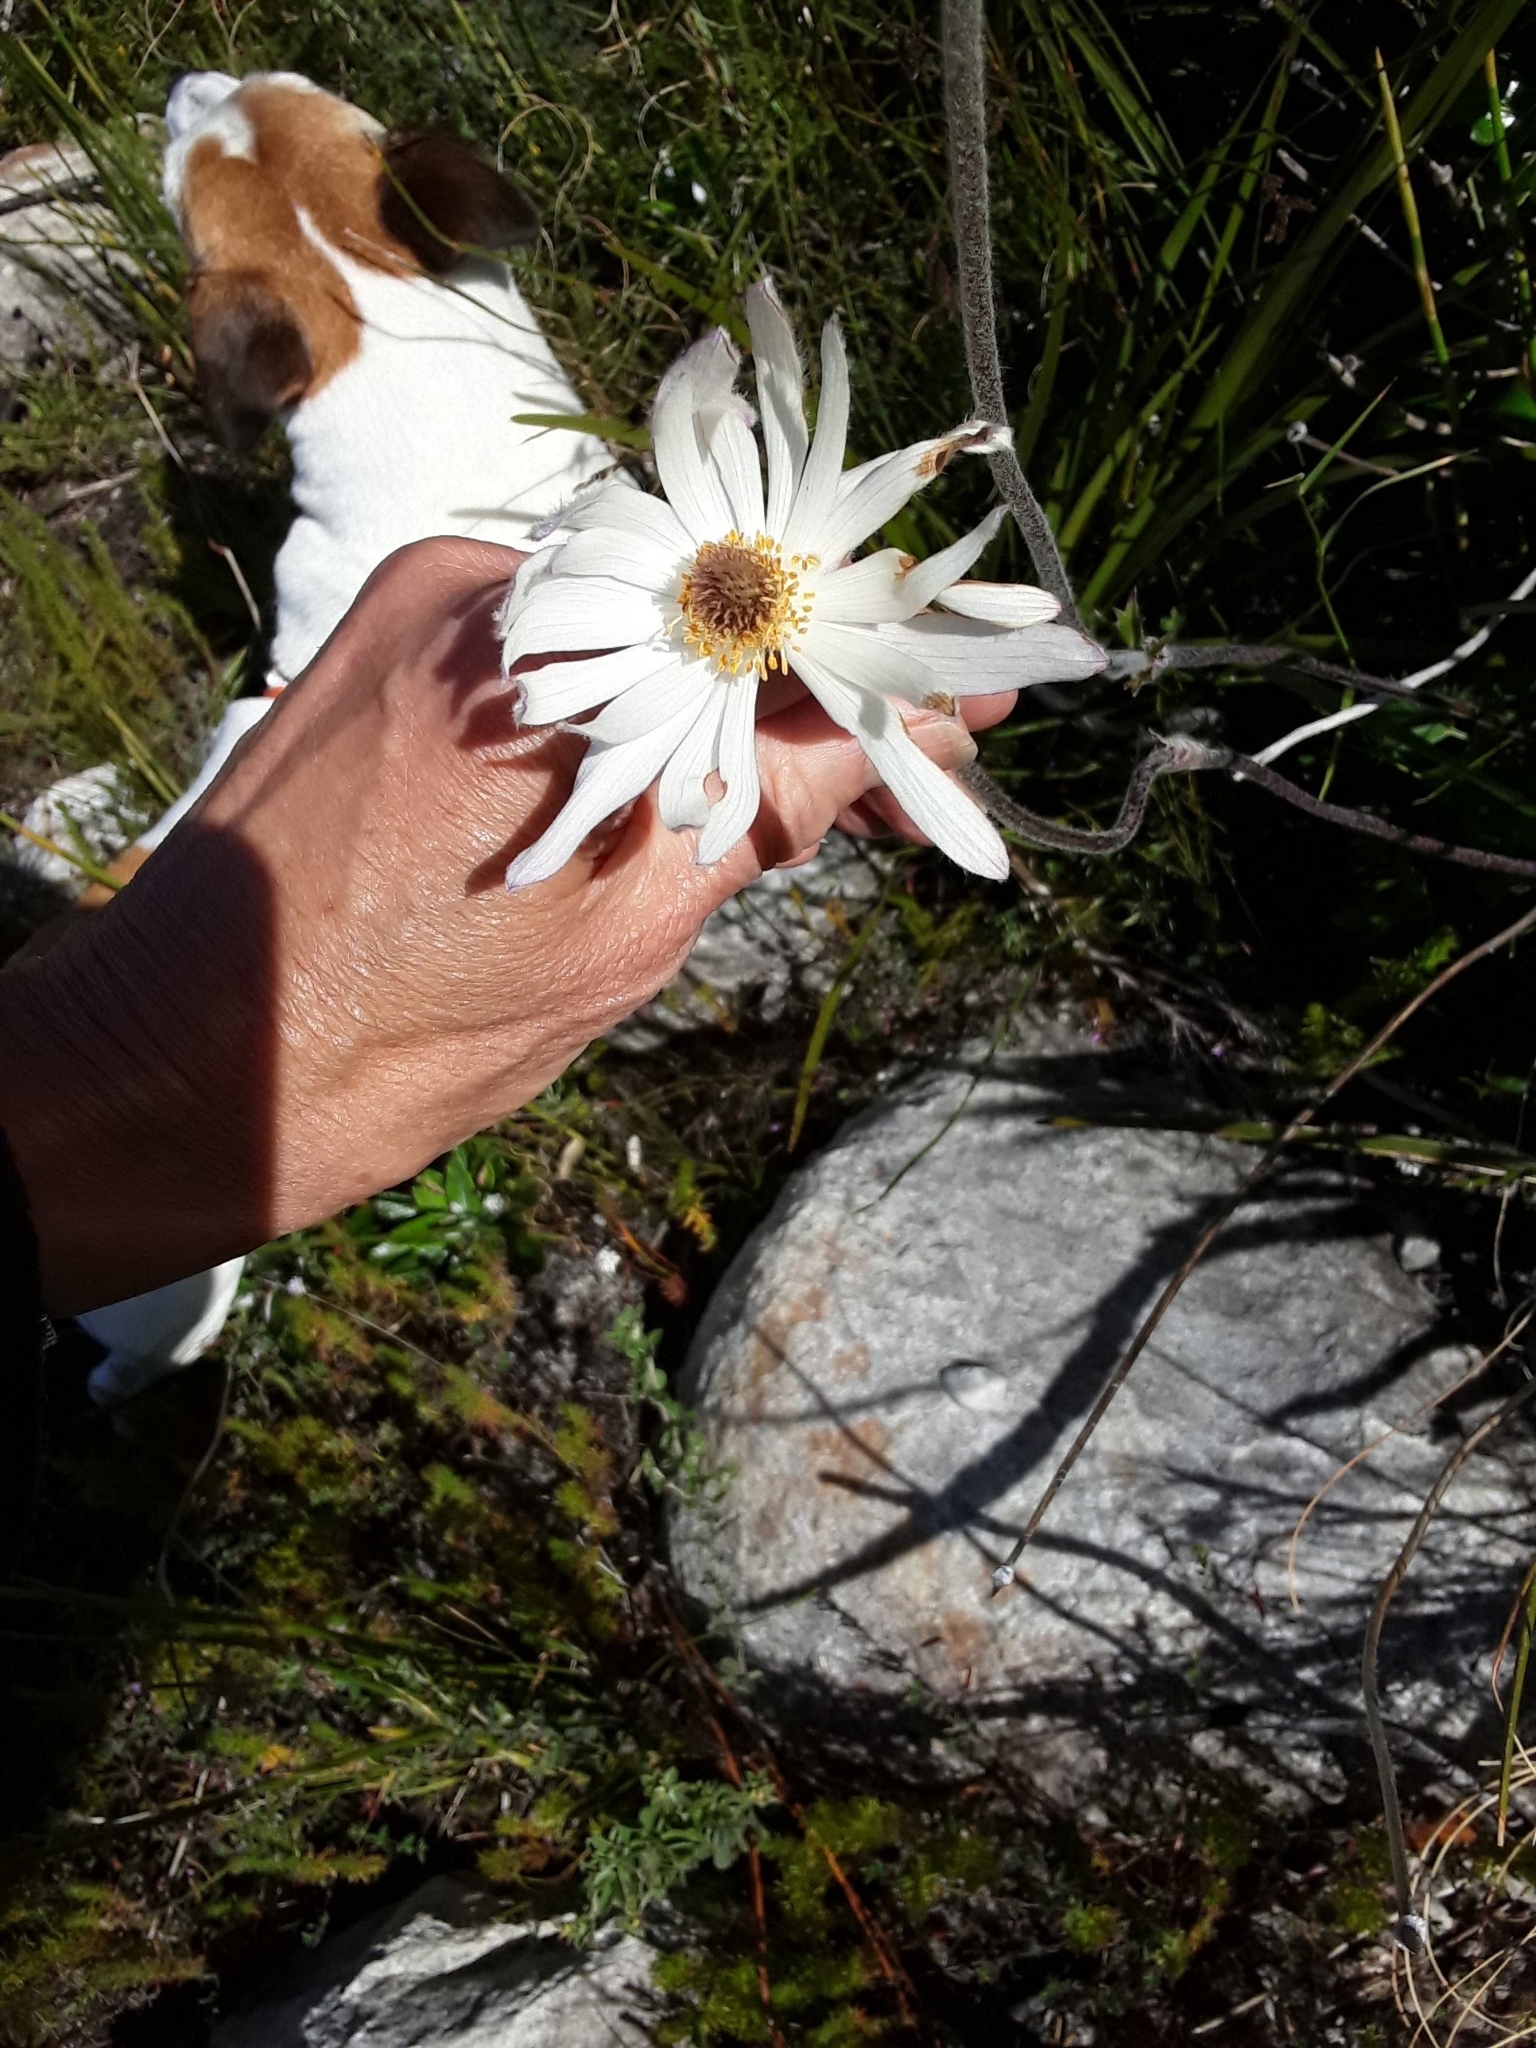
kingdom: Plantae
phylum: Tracheophyta
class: Magnoliopsida
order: Ranunculales
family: Ranunculaceae
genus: Knowltonia
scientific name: Knowltonia tenuifolia
